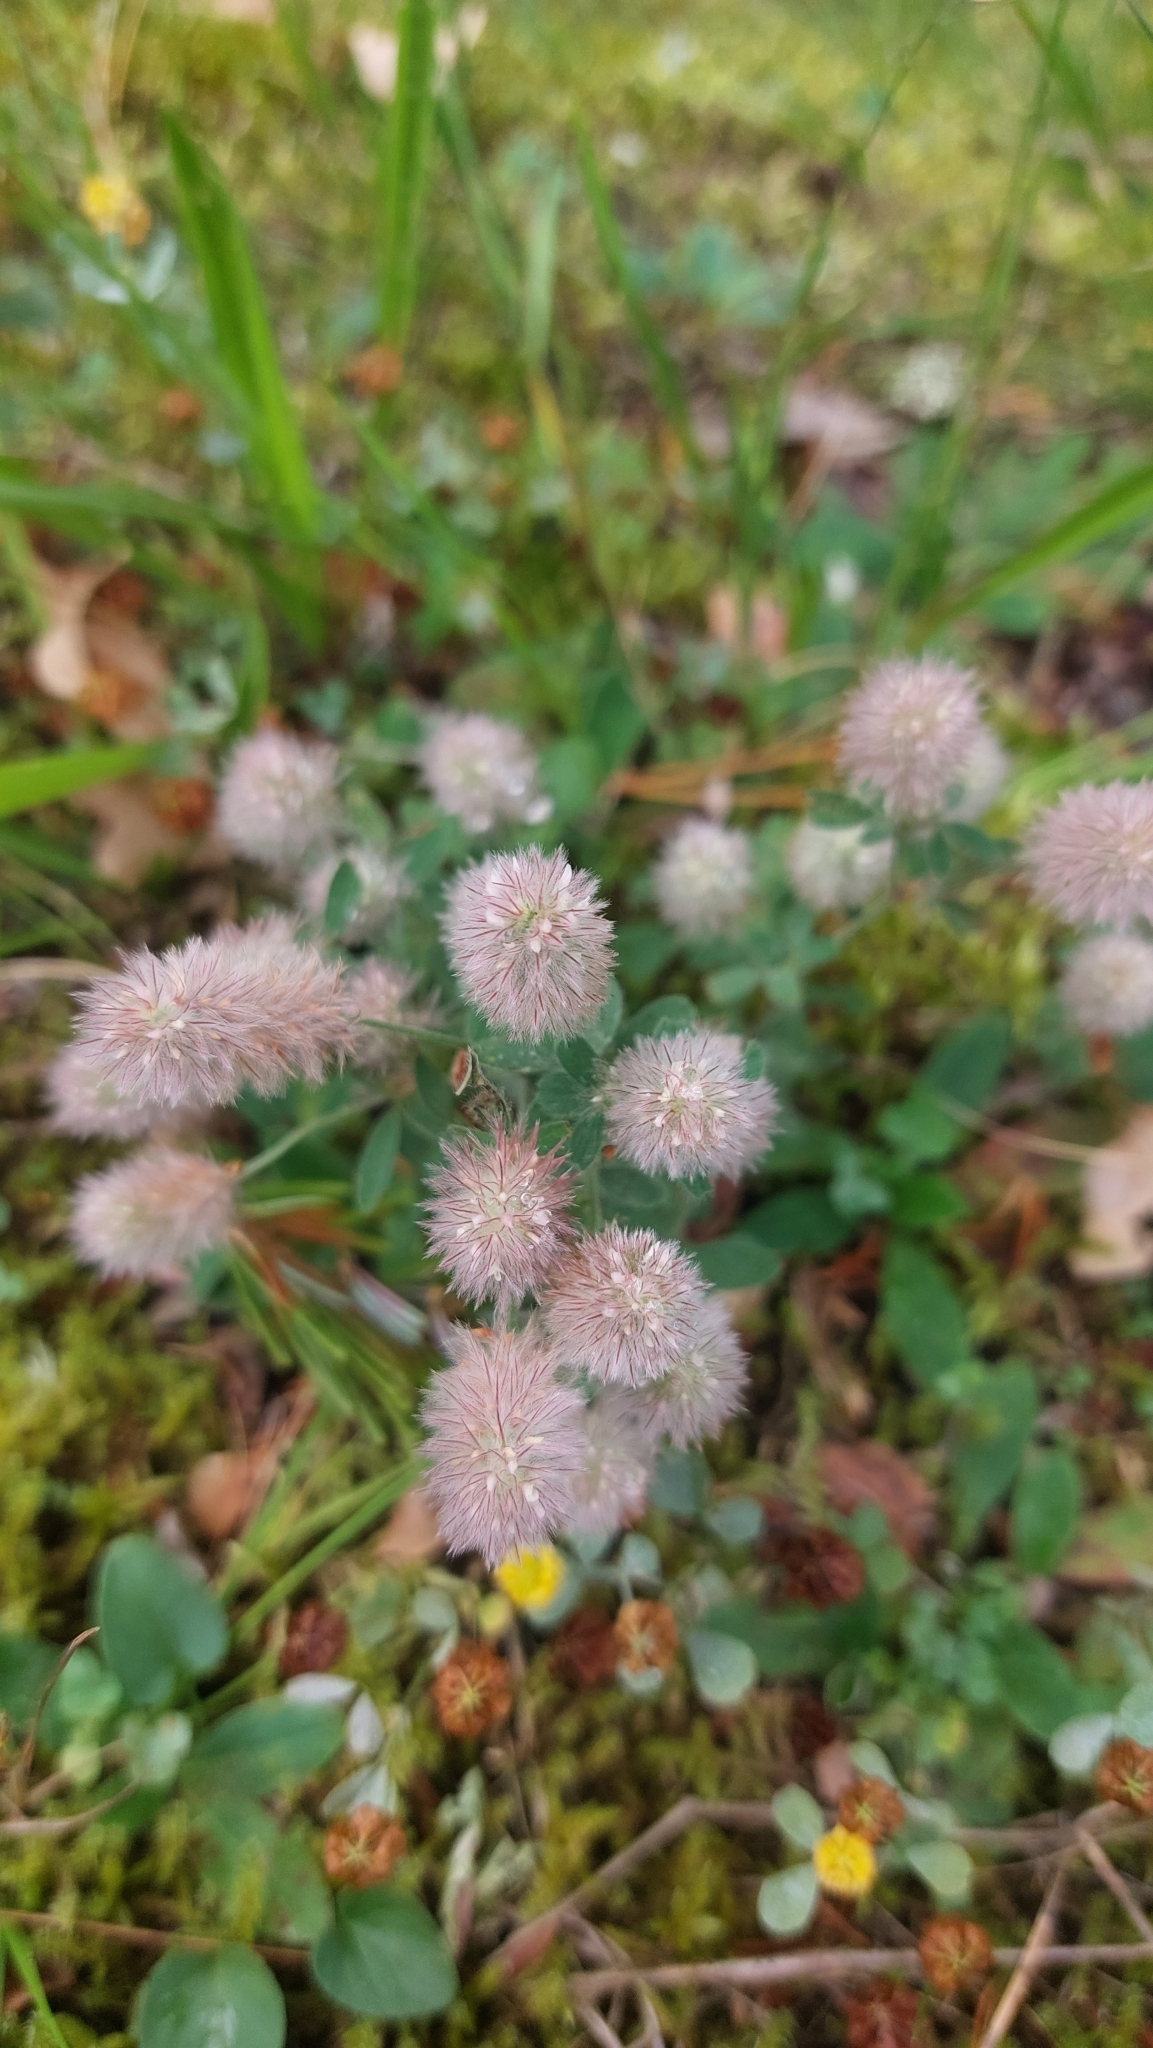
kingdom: Plantae
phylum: Tracheophyta
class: Magnoliopsida
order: Fabales
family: Fabaceae
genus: Trifolium
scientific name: Trifolium arvense
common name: Hare's-foot clover
